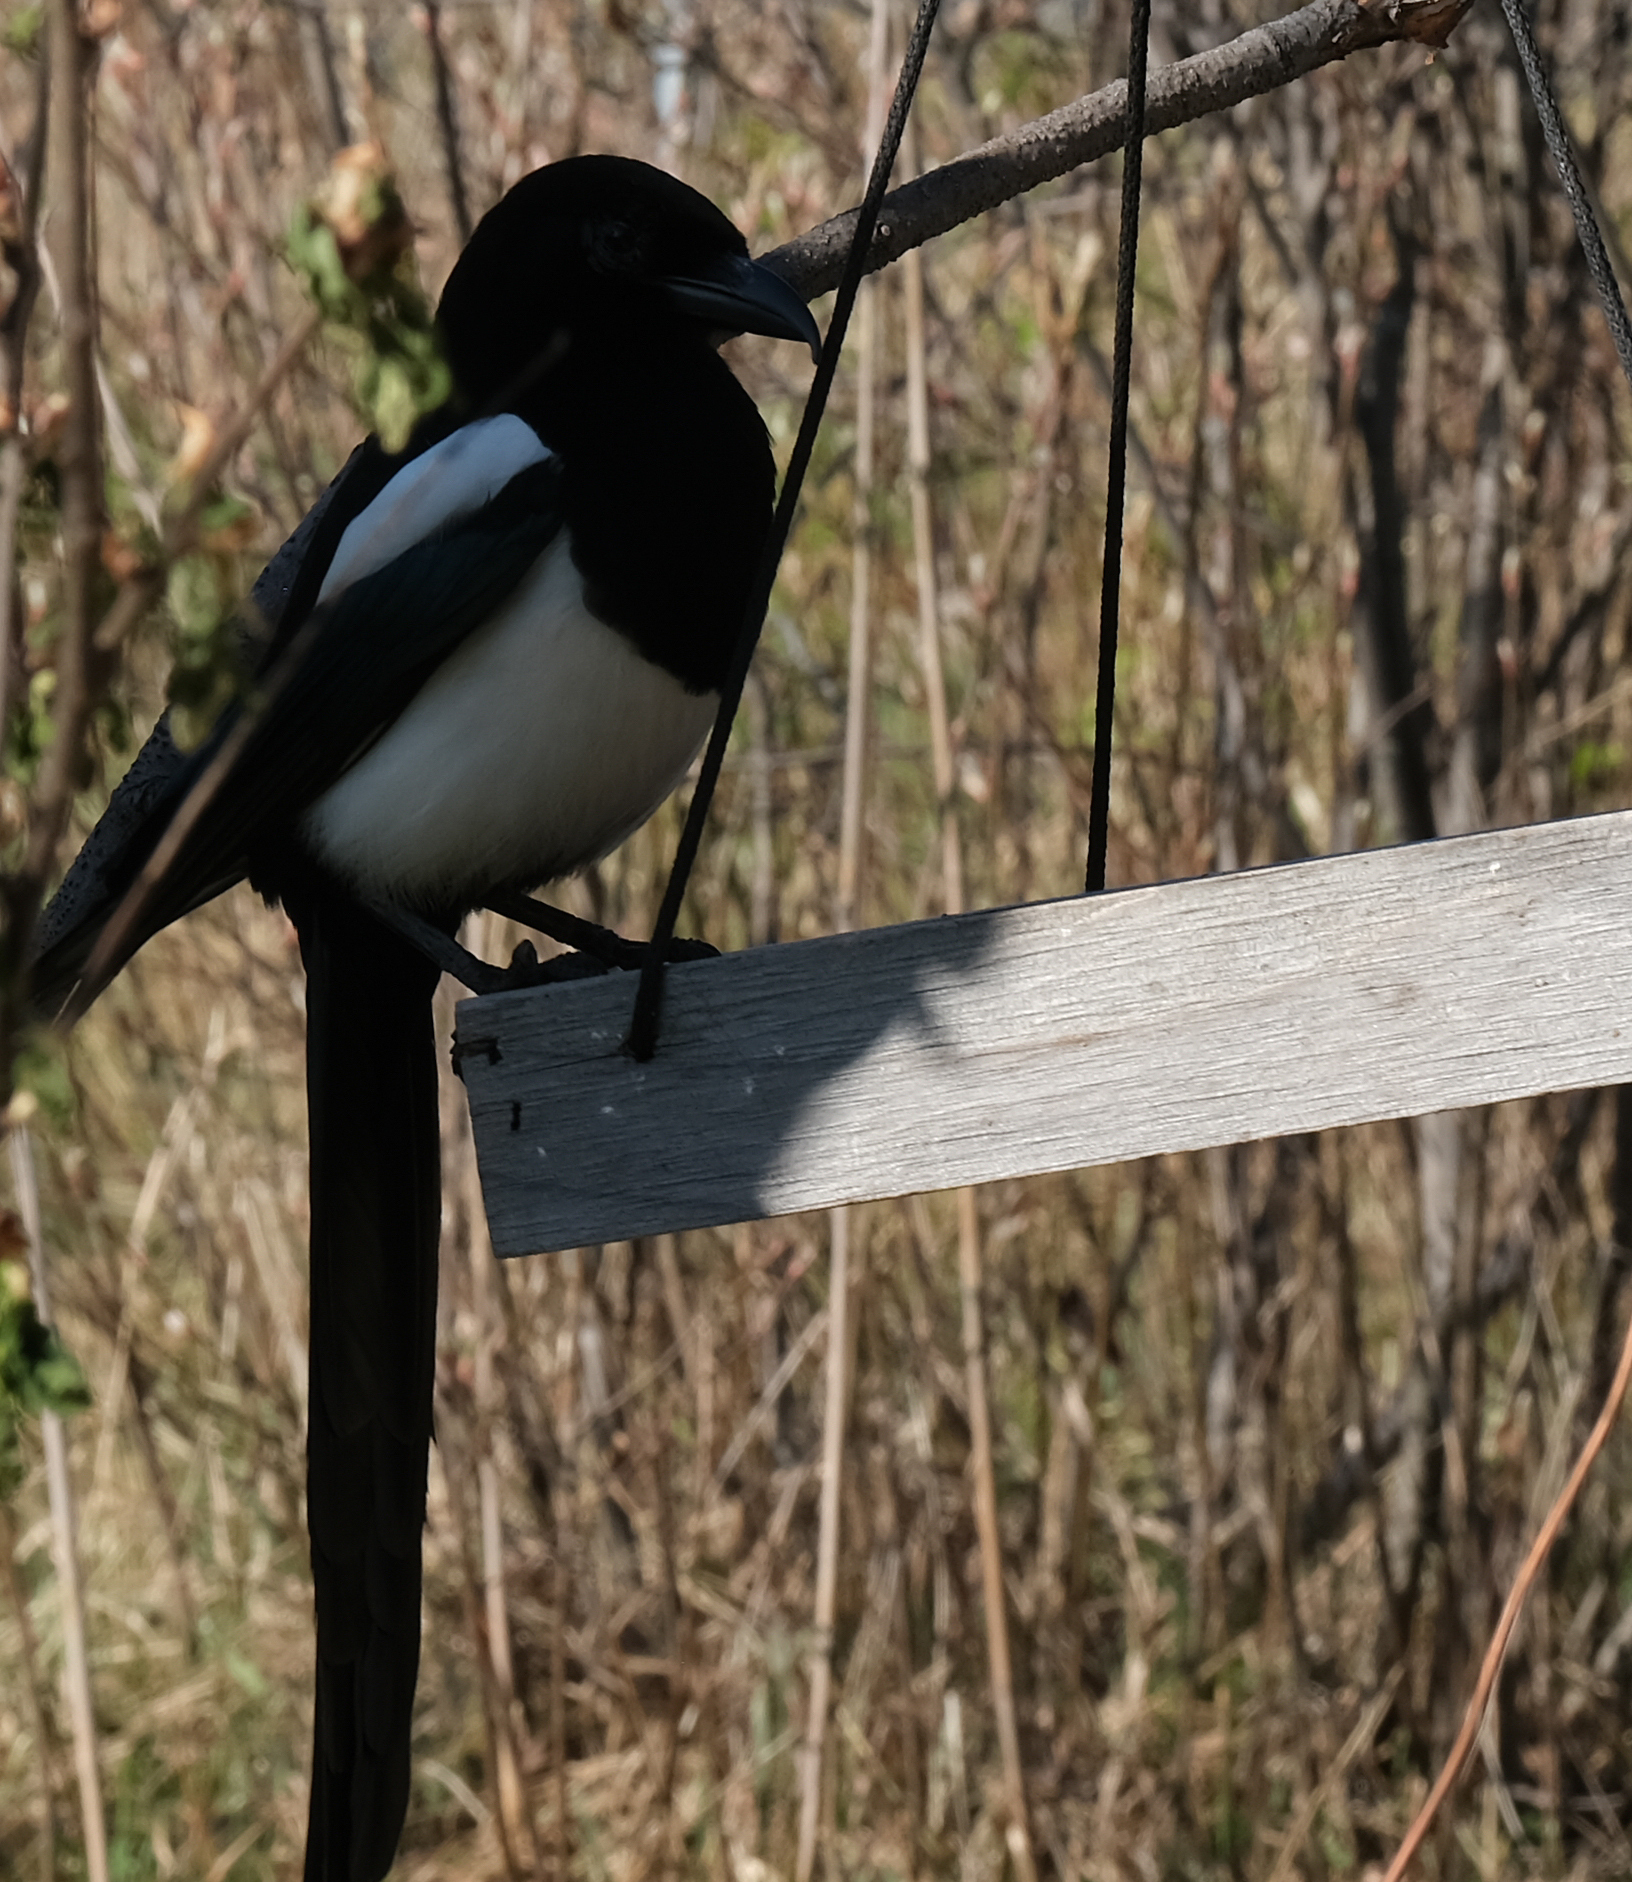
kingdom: Animalia
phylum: Chordata
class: Aves
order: Passeriformes
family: Corvidae
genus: Pica
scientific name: Pica hudsonia
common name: Black-billed magpie
